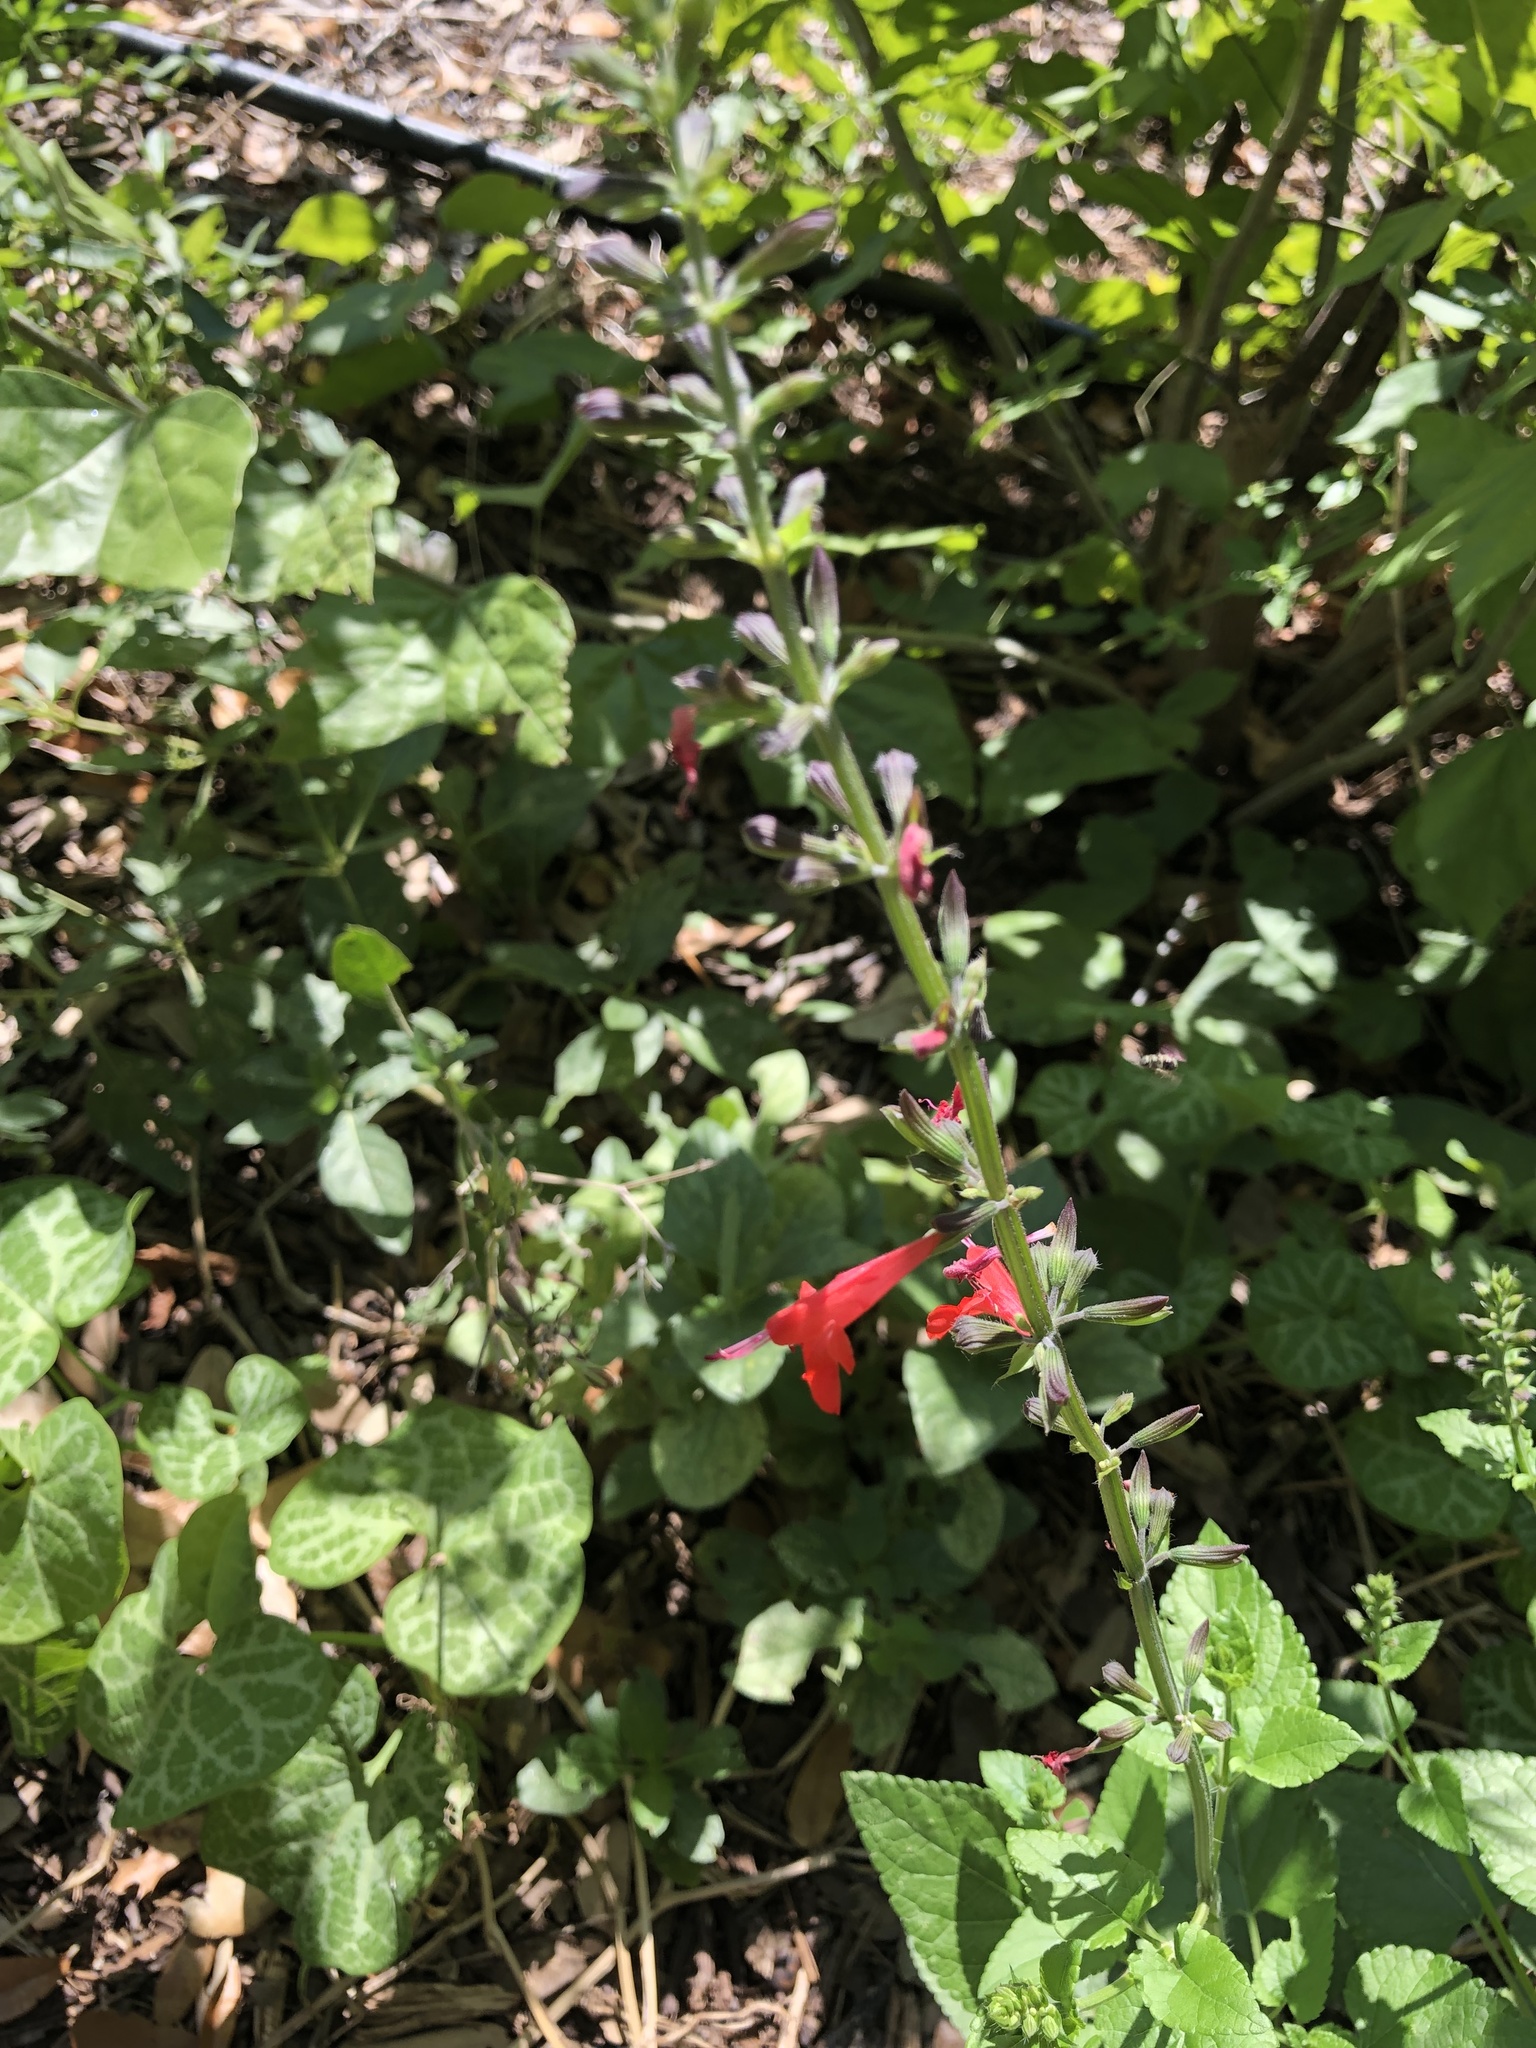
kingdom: Plantae
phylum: Tracheophyta
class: Magnoliopsida
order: Lamiales
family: Lamiaceae
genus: Salvia
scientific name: Salvia coccinea
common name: Blood sage
